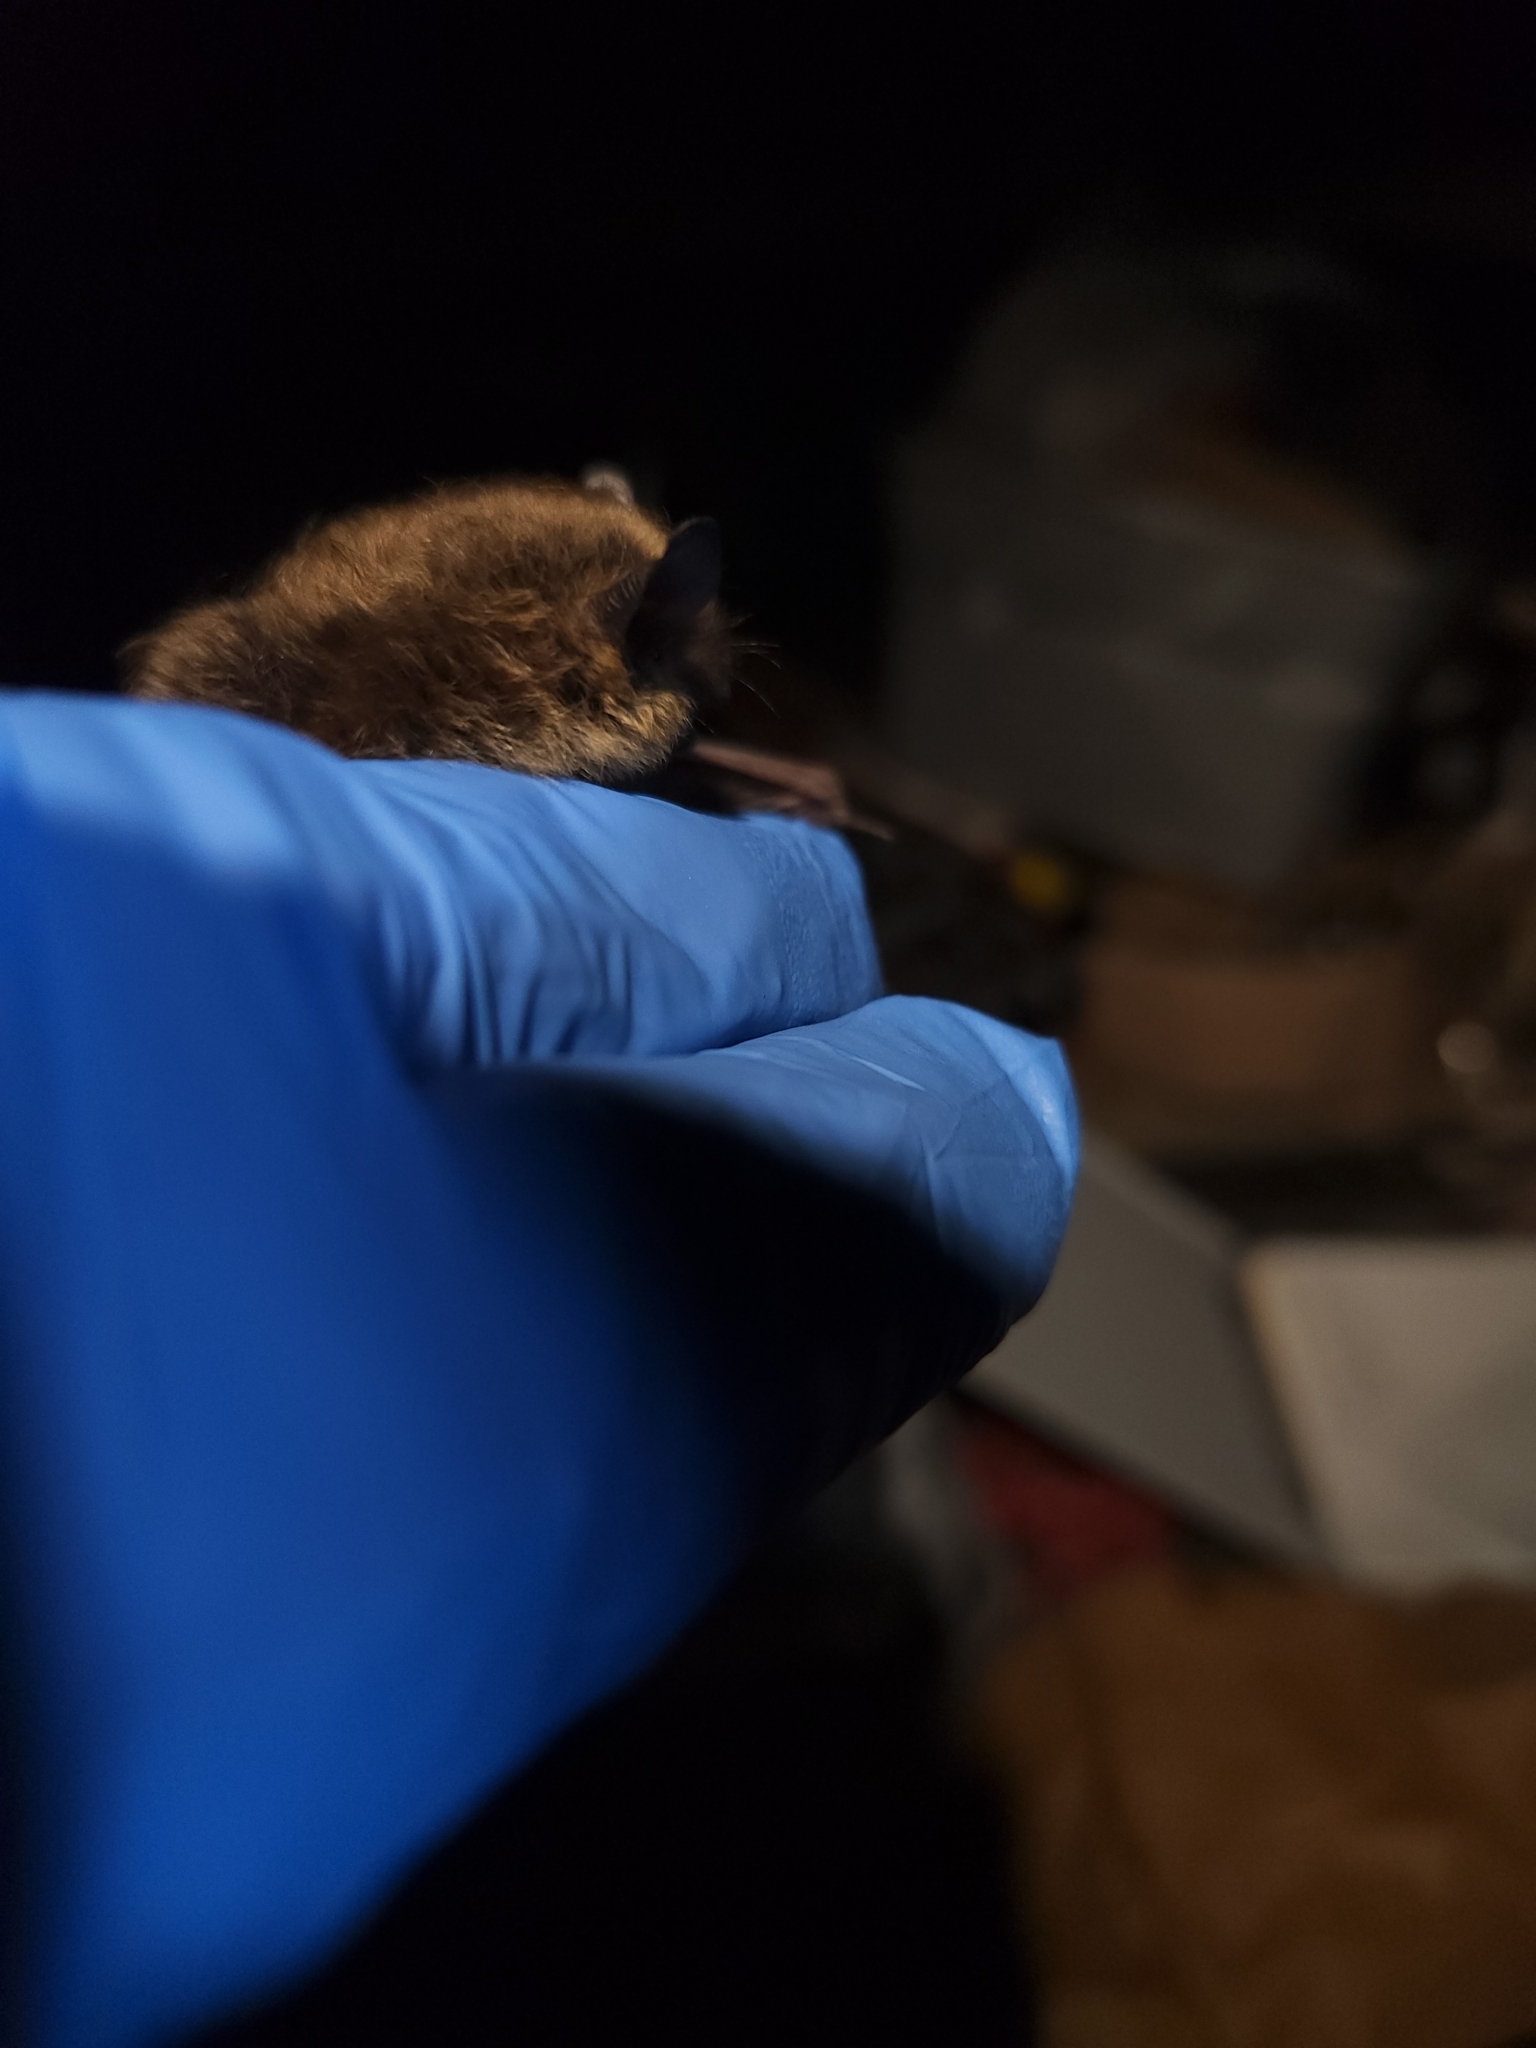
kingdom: Animalia
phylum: Chordata
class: Mammalia
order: Chiroptera
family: Vespertilionidae
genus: Myotis
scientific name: Myotis leibii
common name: Eastern small-footed myotis
